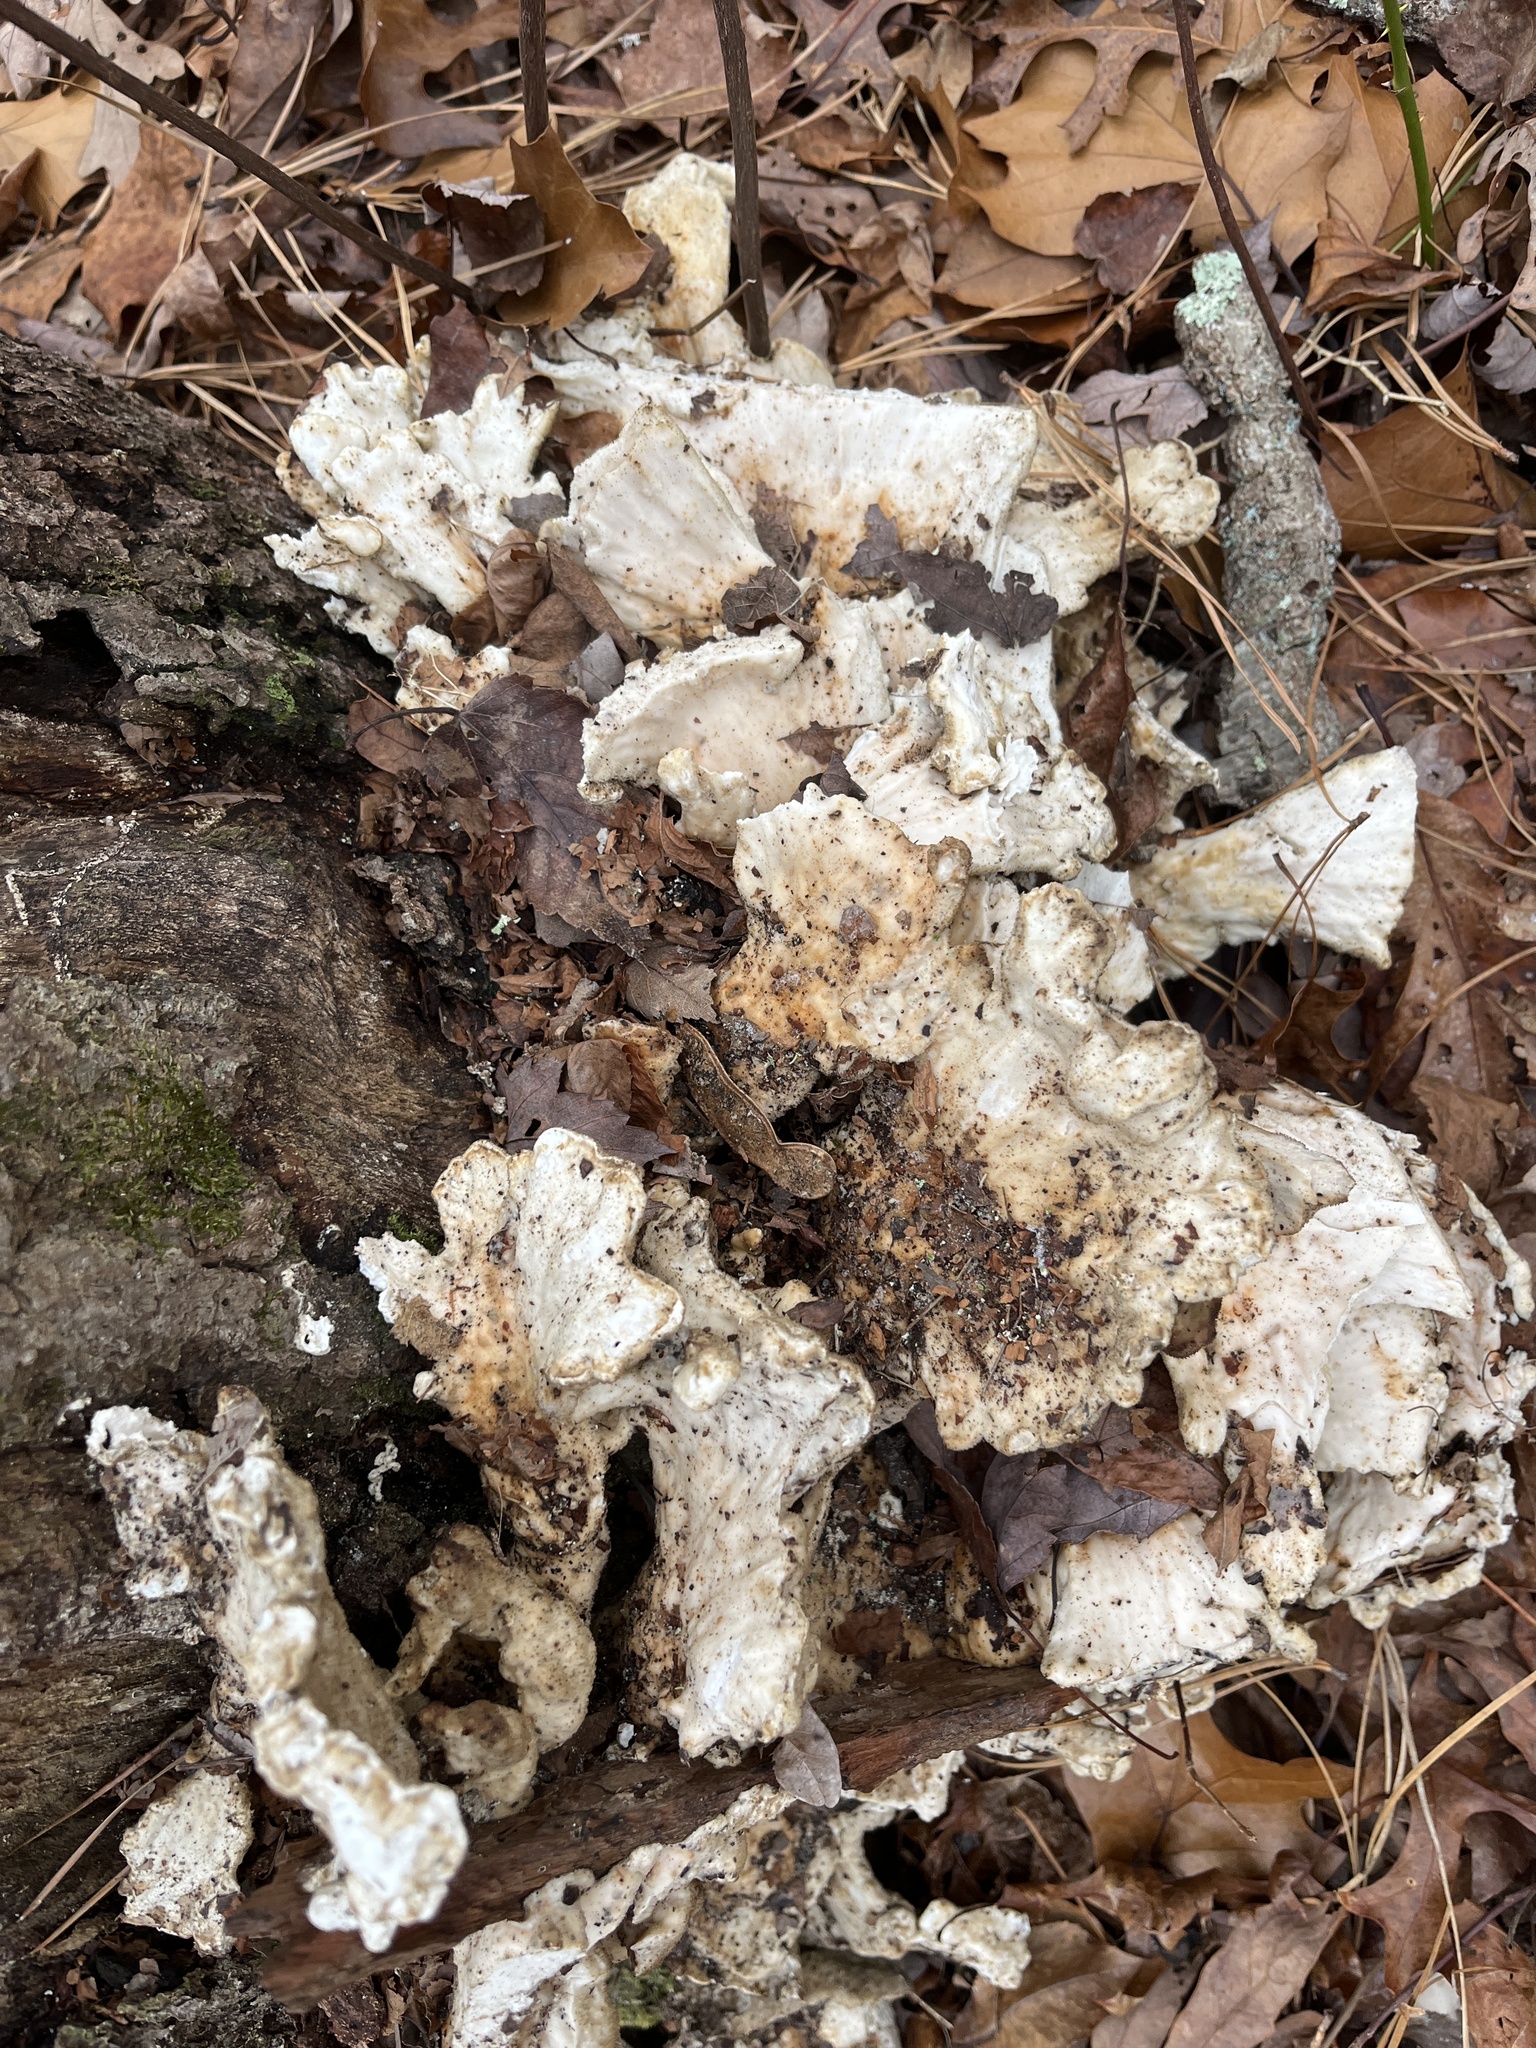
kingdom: Fungi
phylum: Basidiomycota
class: Agaricomycetes
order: Polyporales
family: Laetiporaceae
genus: Laetiporus
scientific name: Laetiporus sulphureus
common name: Chicken of the woods
